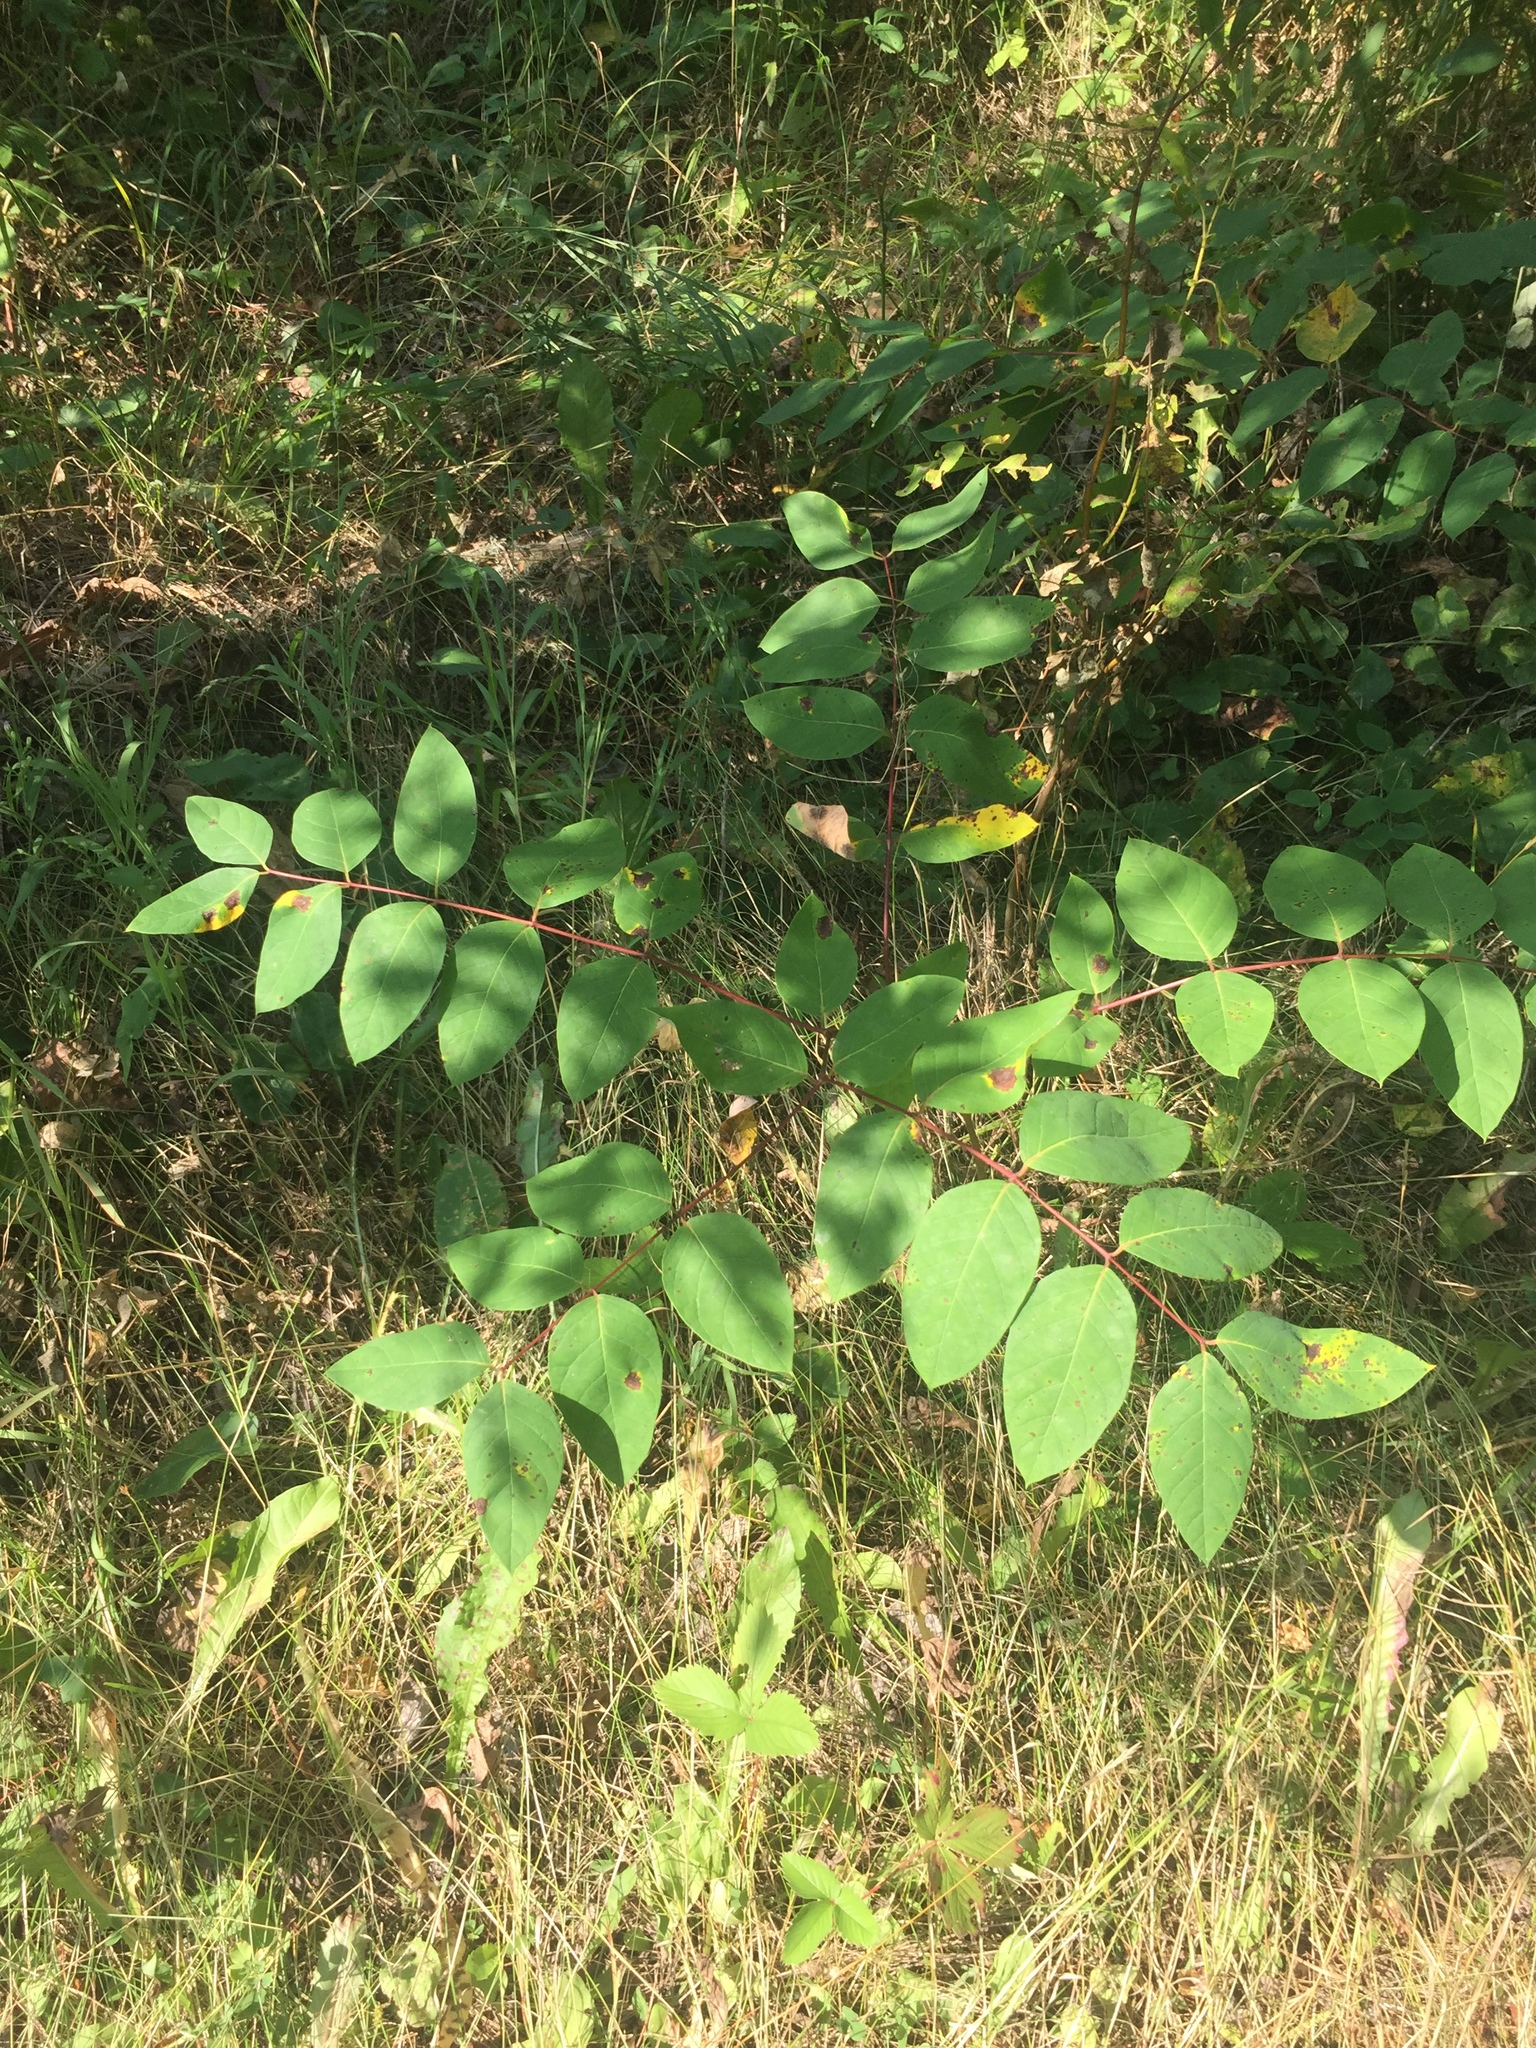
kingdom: Plantae
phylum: Tracheophyta
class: Magnoliopsida
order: Gentianales
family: Apocynaceae
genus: Apocynum
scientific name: Apocynum androsaemifolium
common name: Spreading dogbane
